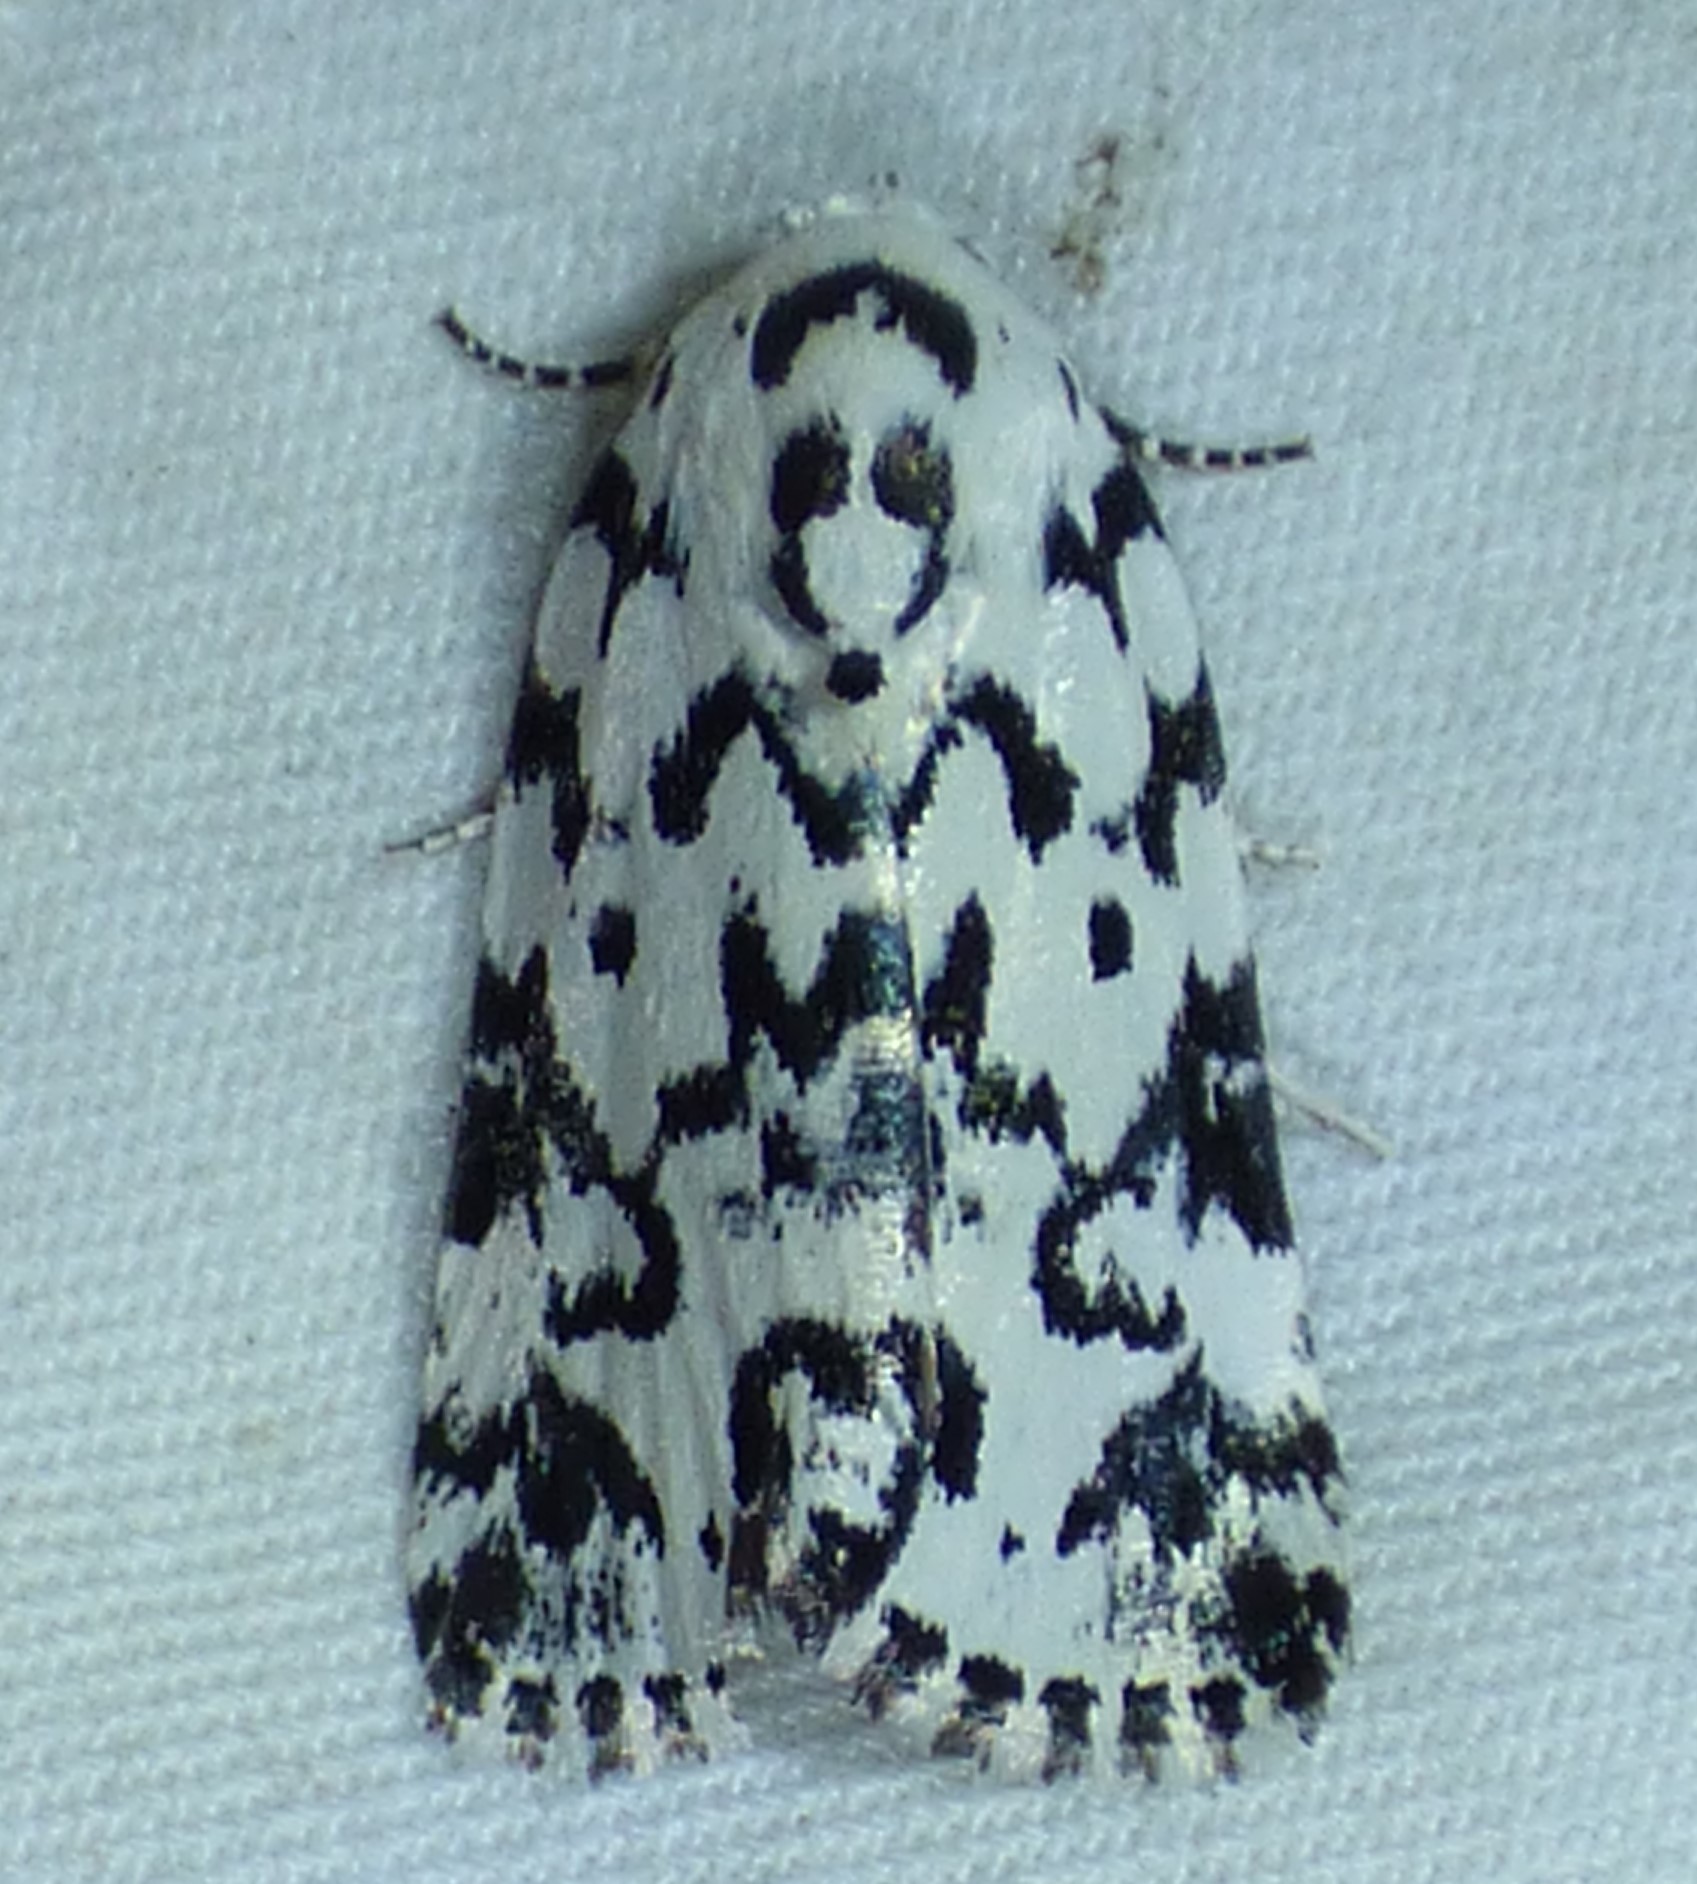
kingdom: Animalia
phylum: Arthropoda
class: Insecta
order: Lepidoptera
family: Noctuidae
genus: Polygrammate
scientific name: Polygrammate hebraeicum
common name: Hebrew moth
